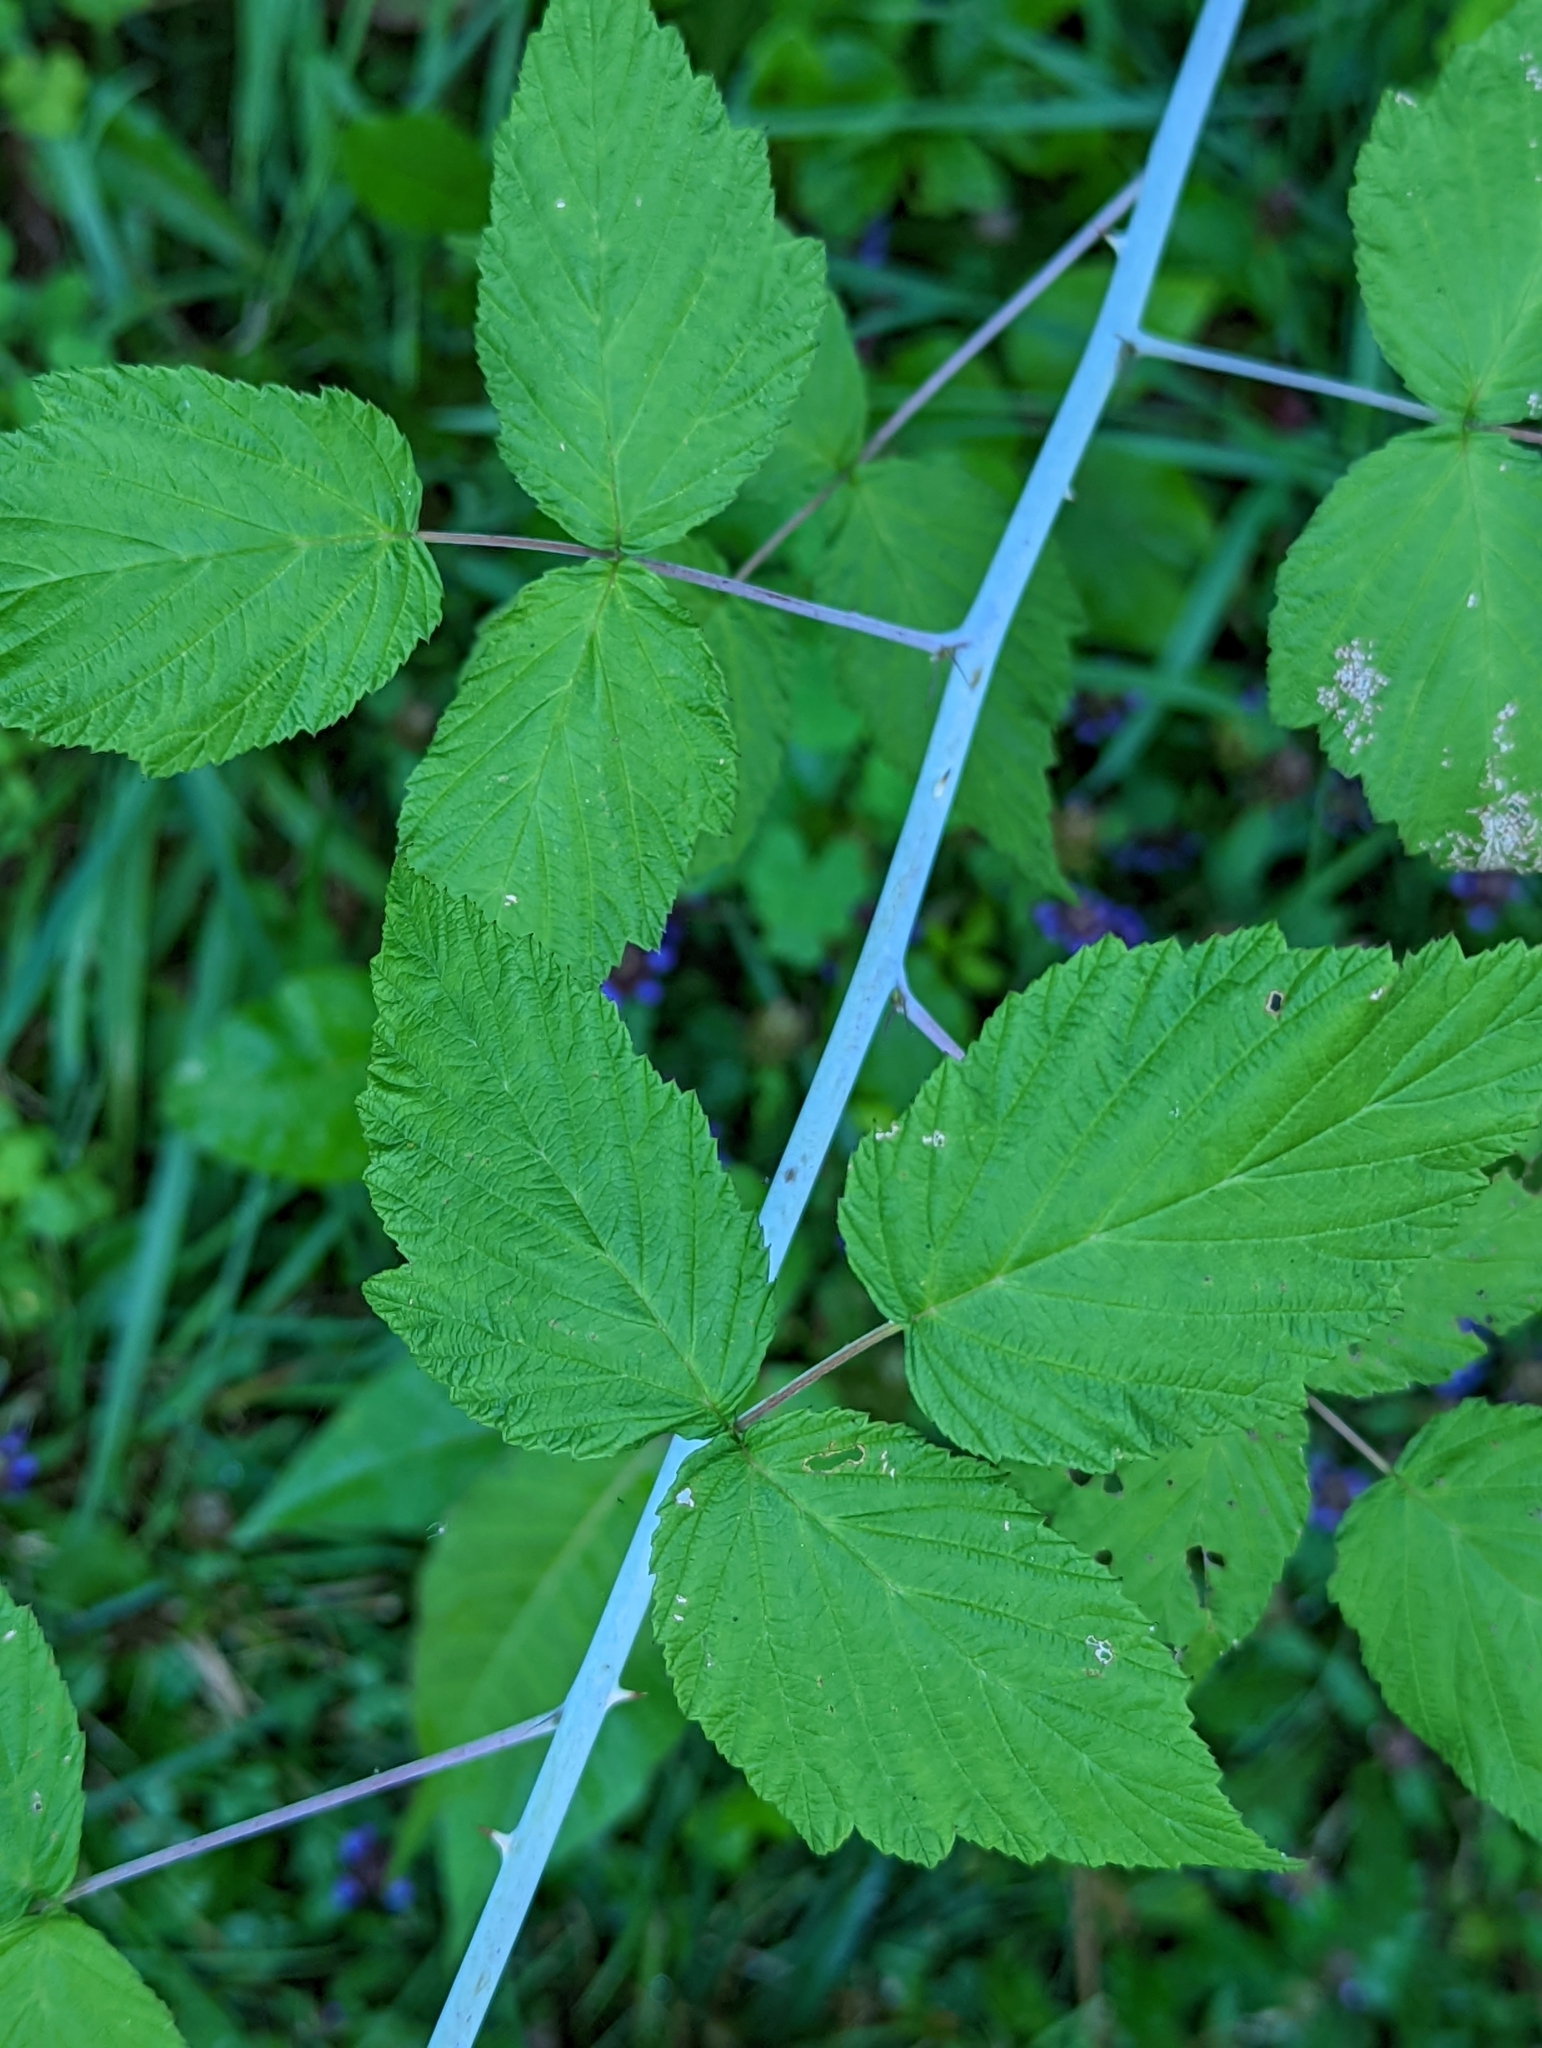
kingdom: Plantae
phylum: Tracheophyta
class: Magnoliopsida
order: Rosales
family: Rosaceae
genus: Rubus
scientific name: Rubus occidentalis
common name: Black raspberry
